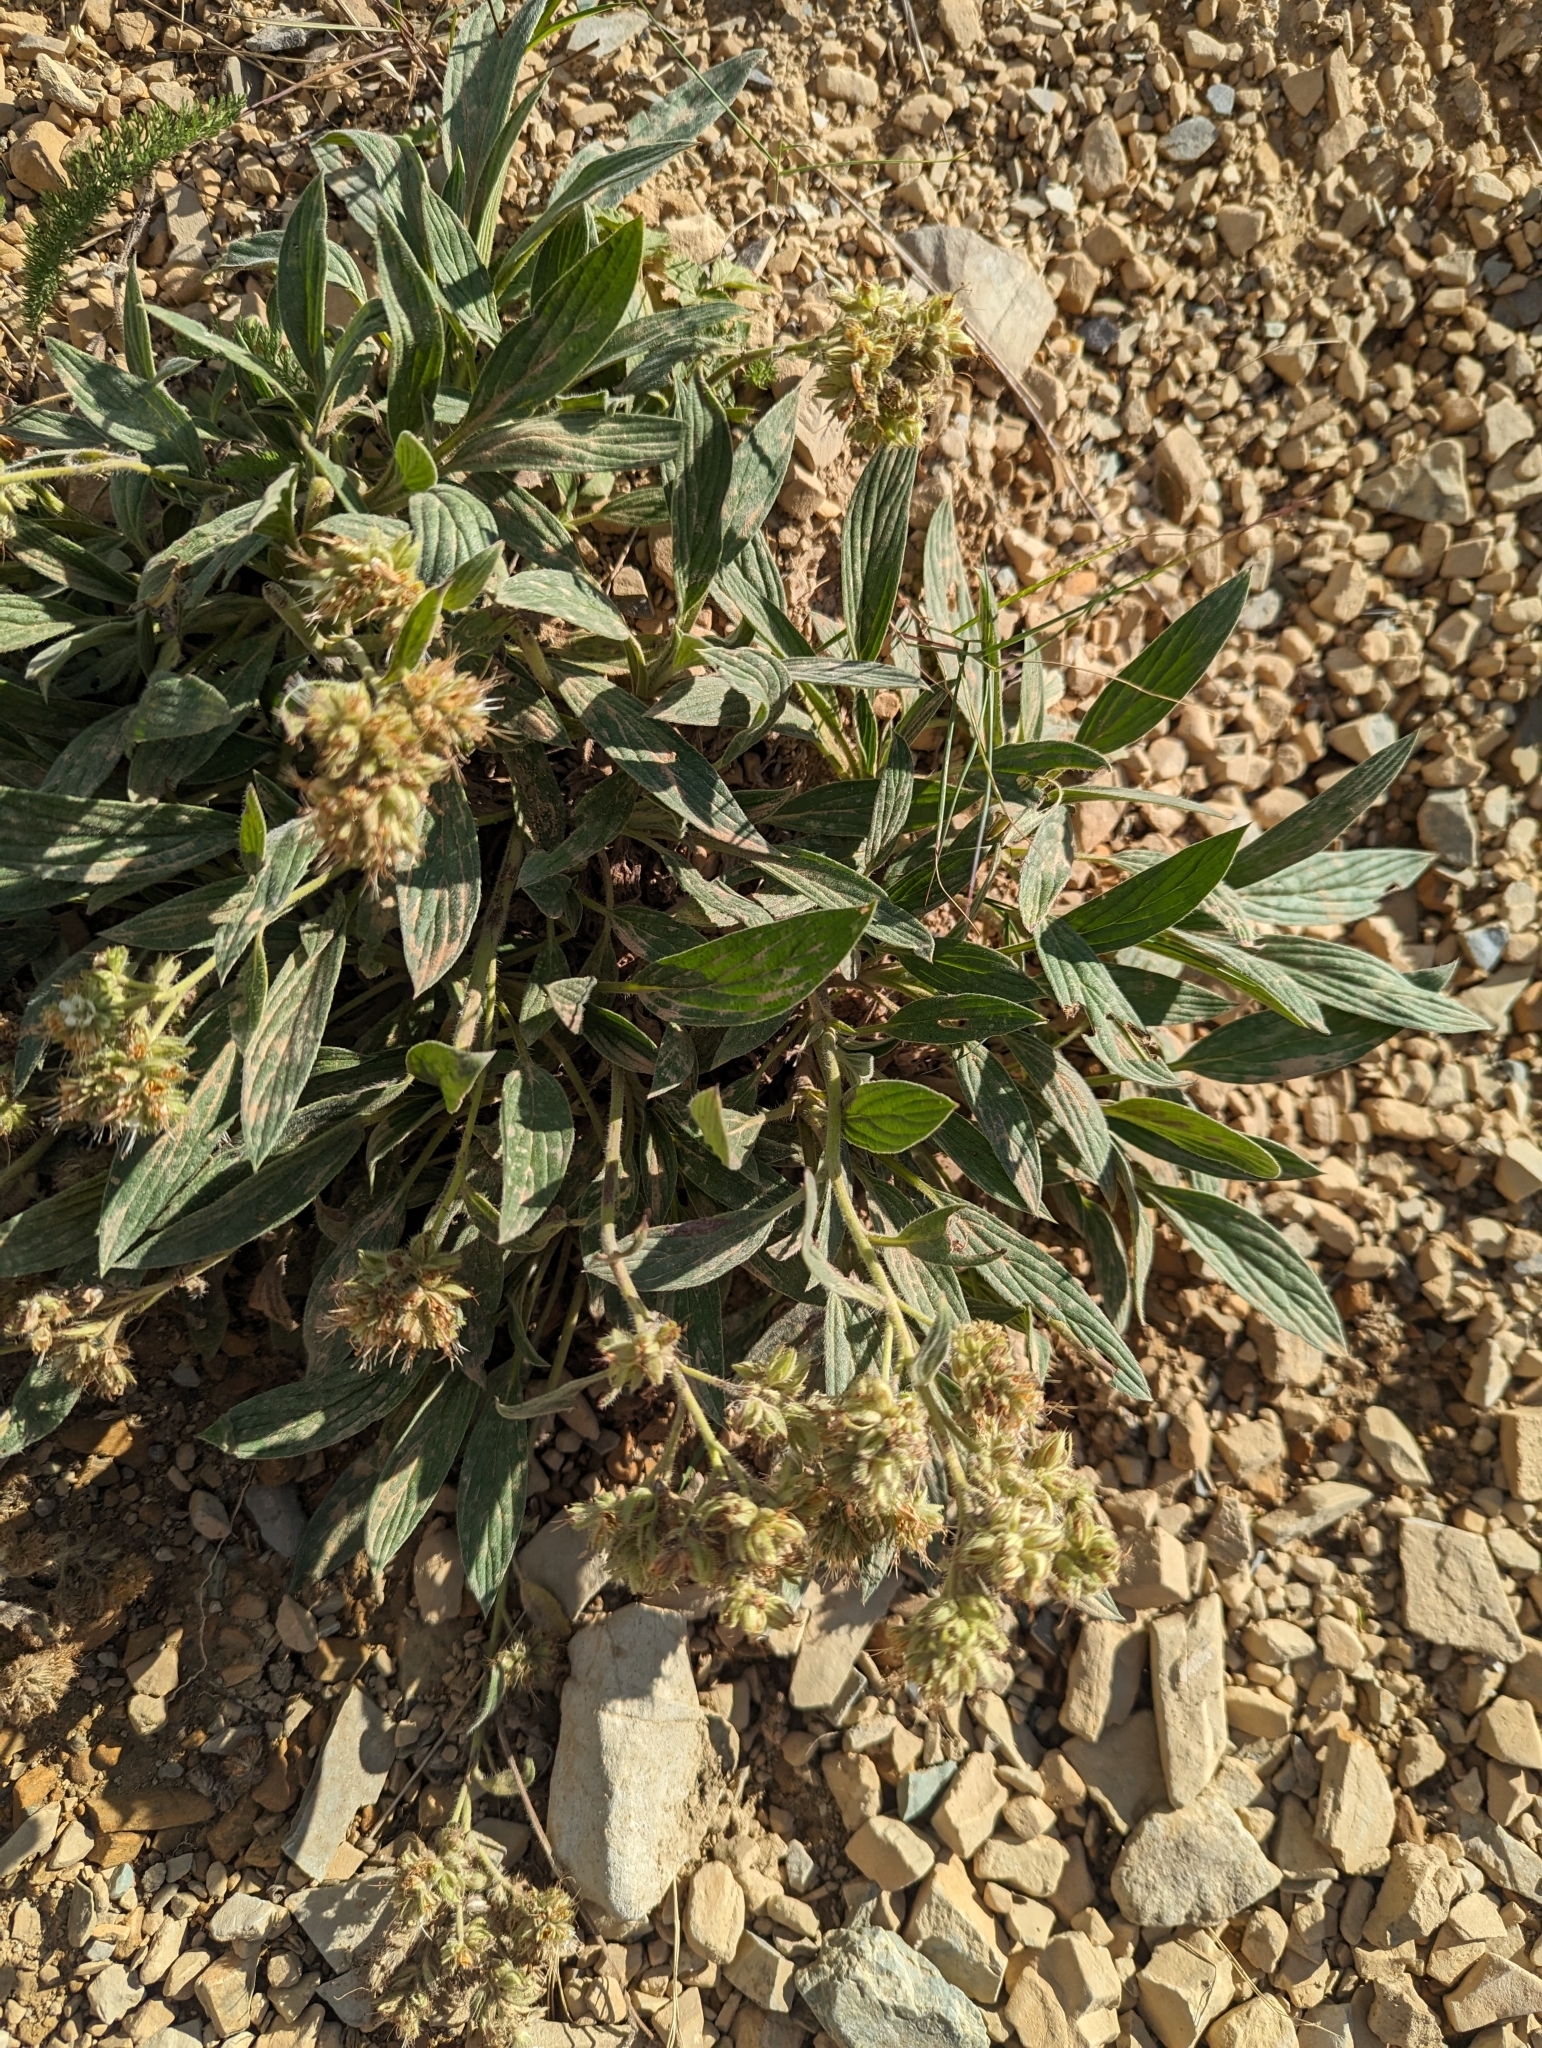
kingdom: Plantae
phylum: Tracheophyta
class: Magnoliopsida
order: Boraginales
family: Hydrophyllaceae
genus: Phacelia
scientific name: Phacelia hastata
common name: Silver-leaved phacelia
